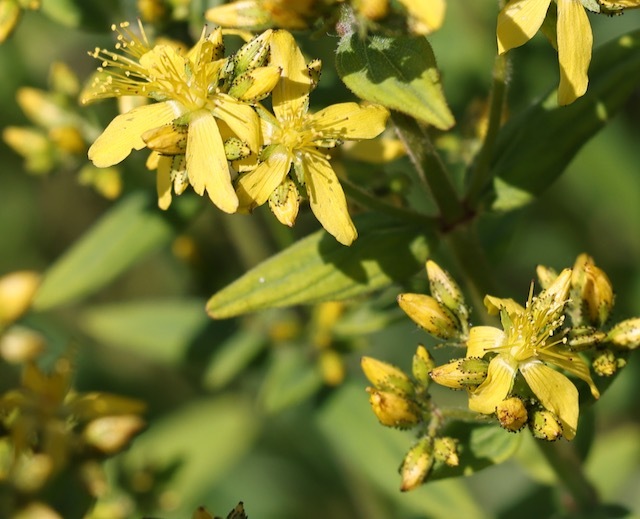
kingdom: Plantae
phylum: Tracheophyta
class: Magnoliopsida
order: Malpighiales
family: Hypericaceae
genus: Hypericum
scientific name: Hypericum hirsutum
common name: Hairy st. john's-wort
